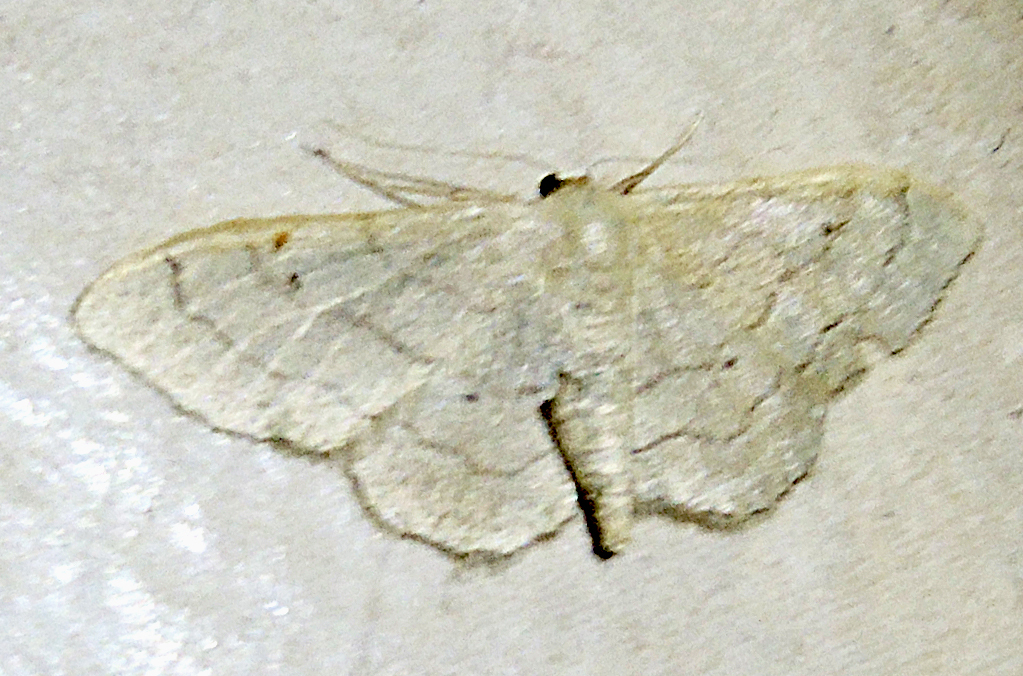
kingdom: Animalia
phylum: Arthropoda
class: Insecta
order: Lepidoptera
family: Geometridae
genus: Idaea
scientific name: Idaea aversata
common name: Riband wave
